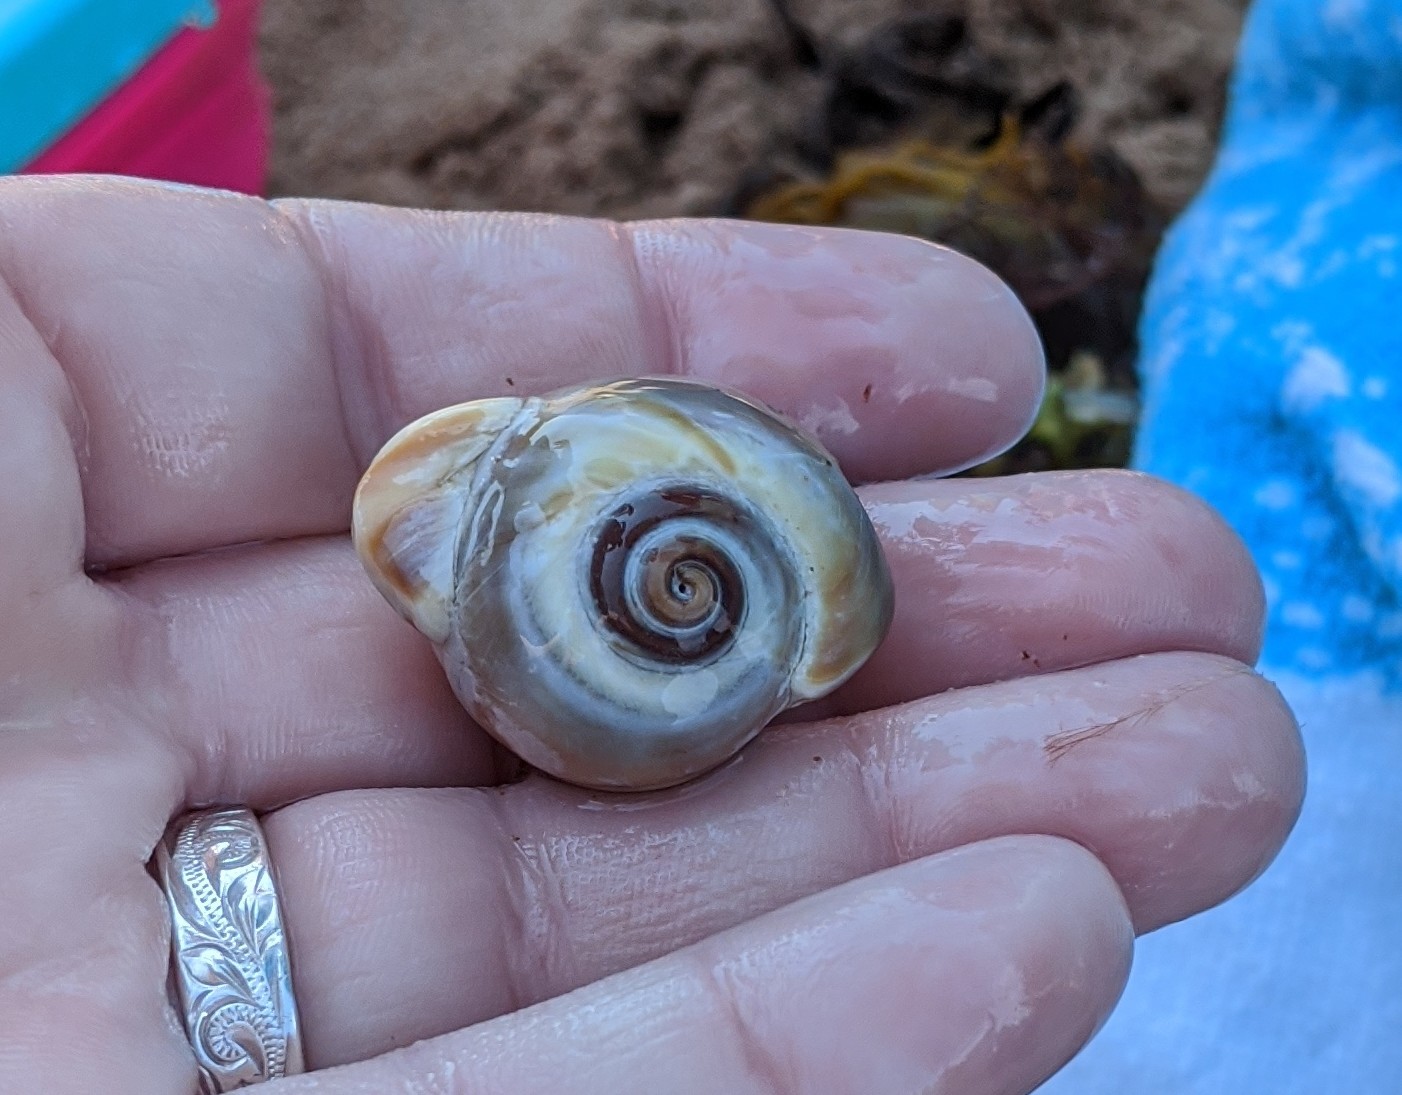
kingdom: Animalia
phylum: Mollusca
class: Gastropoda
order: Littorinimorpha
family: Naticidae
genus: Euspira
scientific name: Euspira heros
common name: Common northern moonsnail
